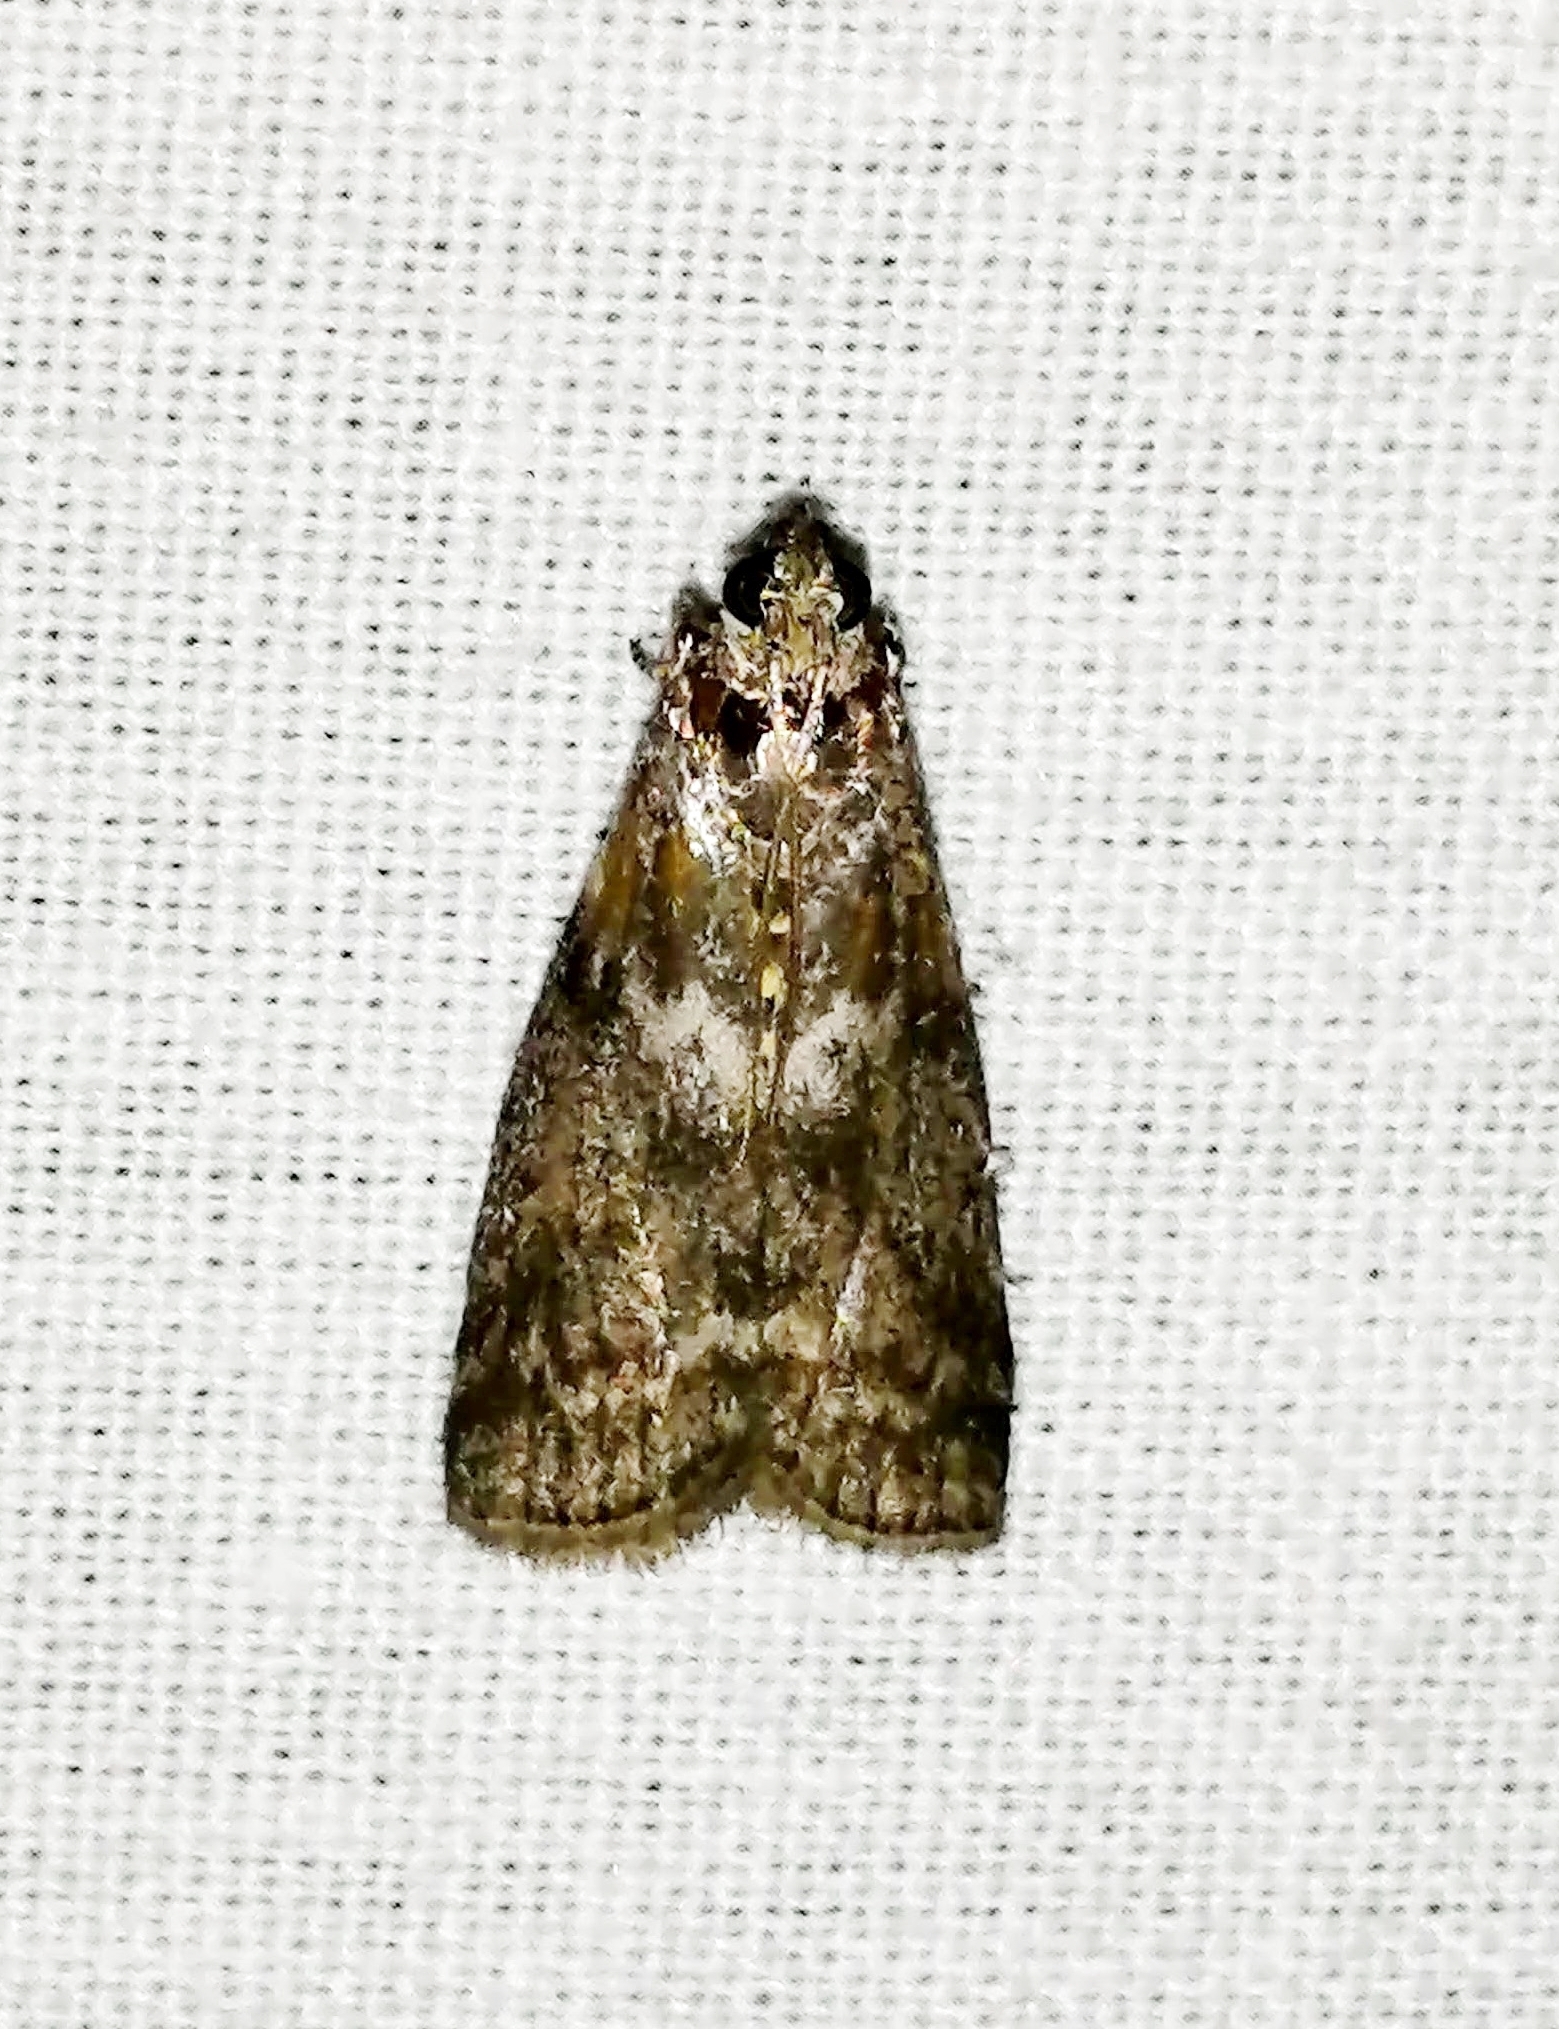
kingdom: Animalia
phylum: Arthropoda
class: Insecta
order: Lepidoptera
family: Pyralidae
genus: Sciota
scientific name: Sciota subcaesiella
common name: Locust leafroller
